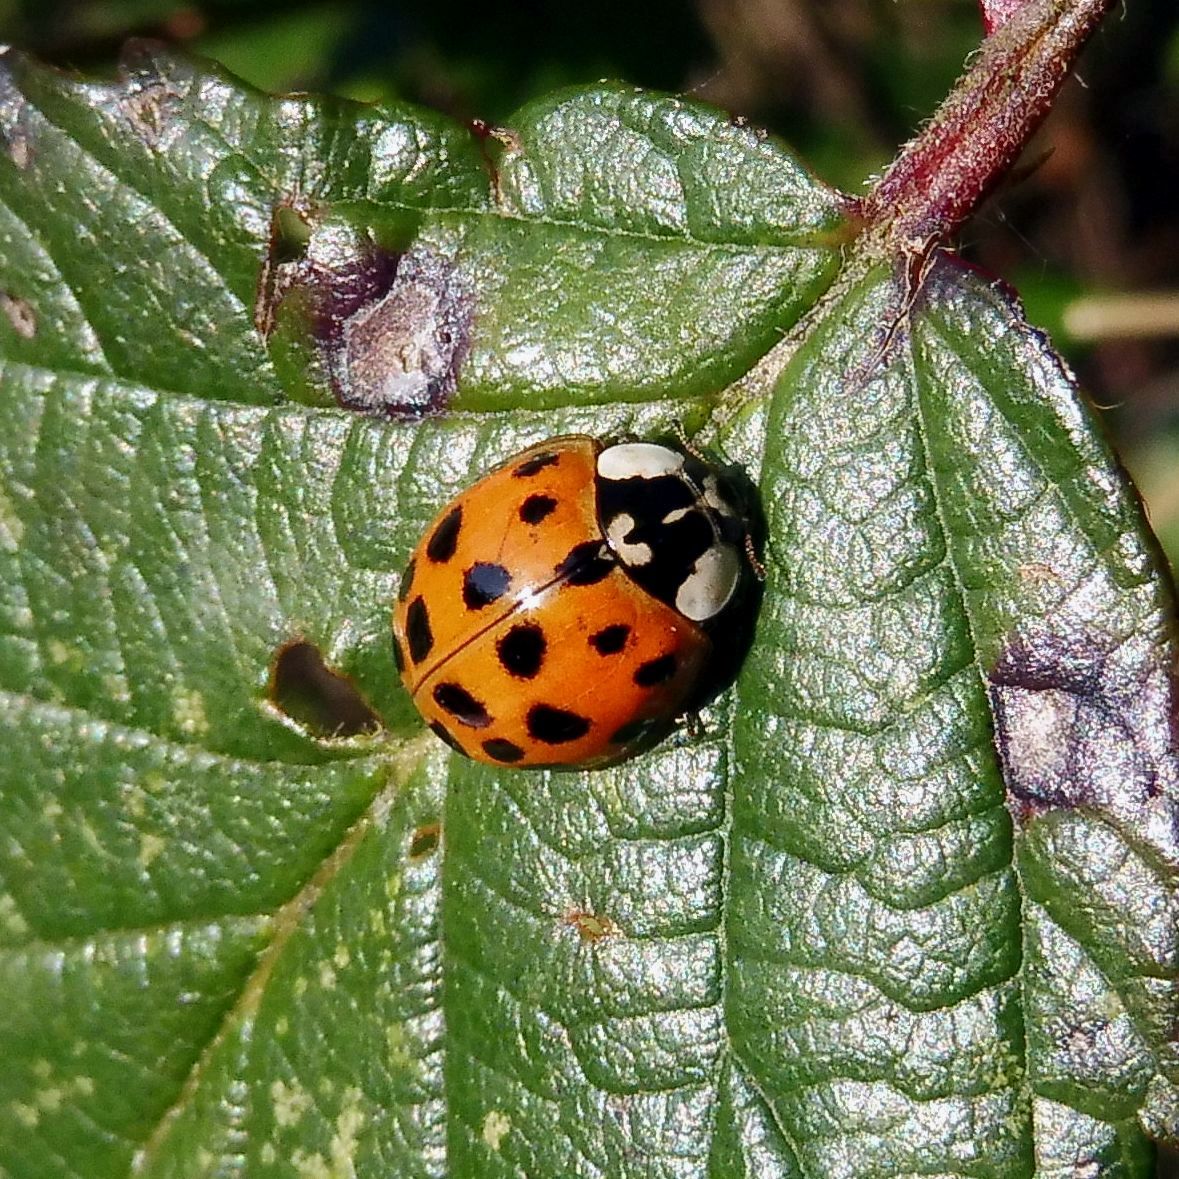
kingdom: Animalia
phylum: Arthropoda
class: Insecta
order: Coleoptera
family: Coccinellidae
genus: Harmonia
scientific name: Harmonia axyridis
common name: Harlequin ladybird
